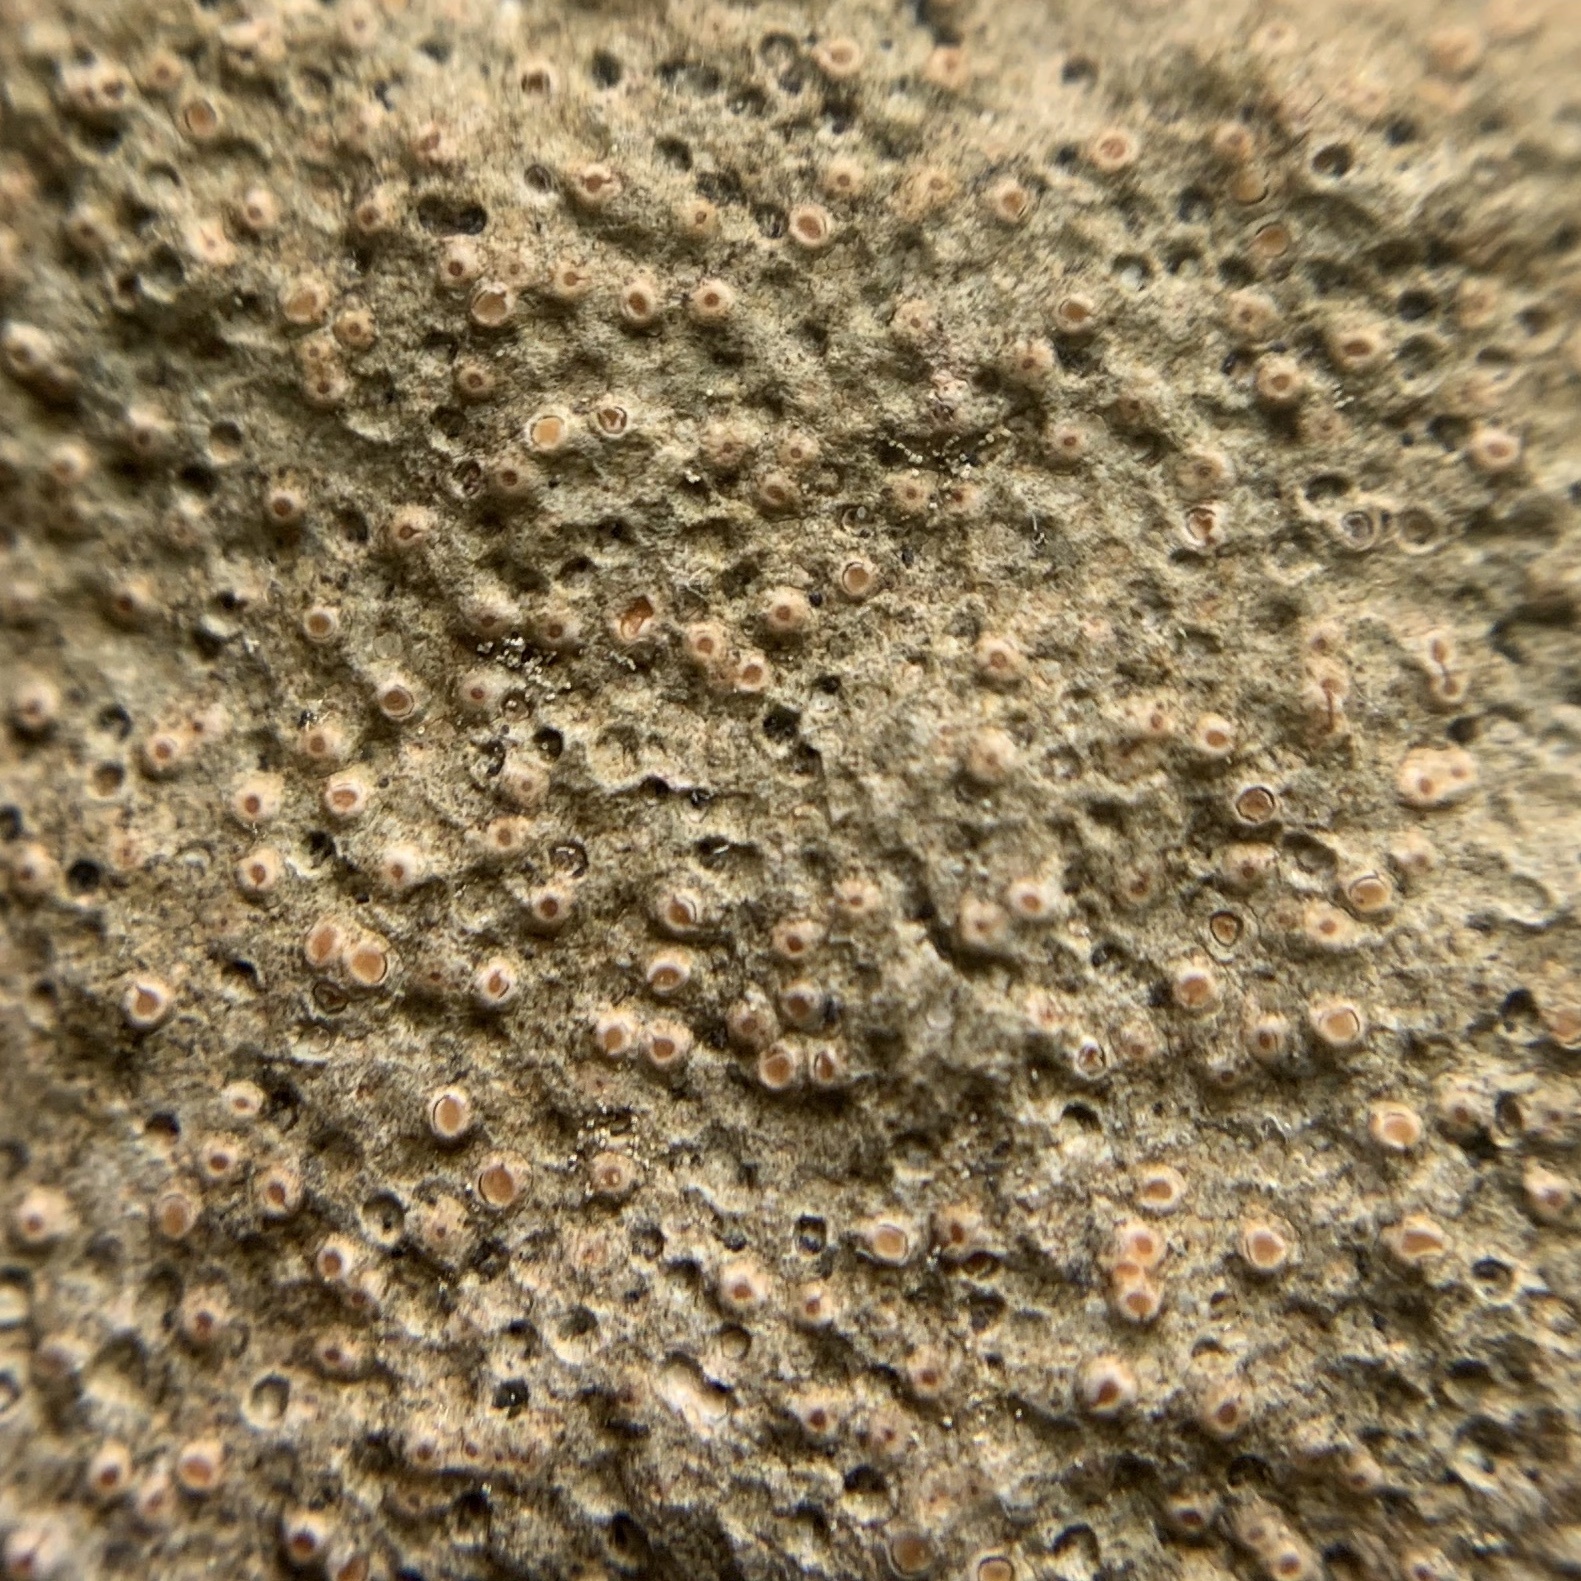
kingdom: Fungi
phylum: Ascomycota
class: Lecanoromycetes
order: Ostropales
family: Stictidaceae
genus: Petractis
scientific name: Petractis farlowii
